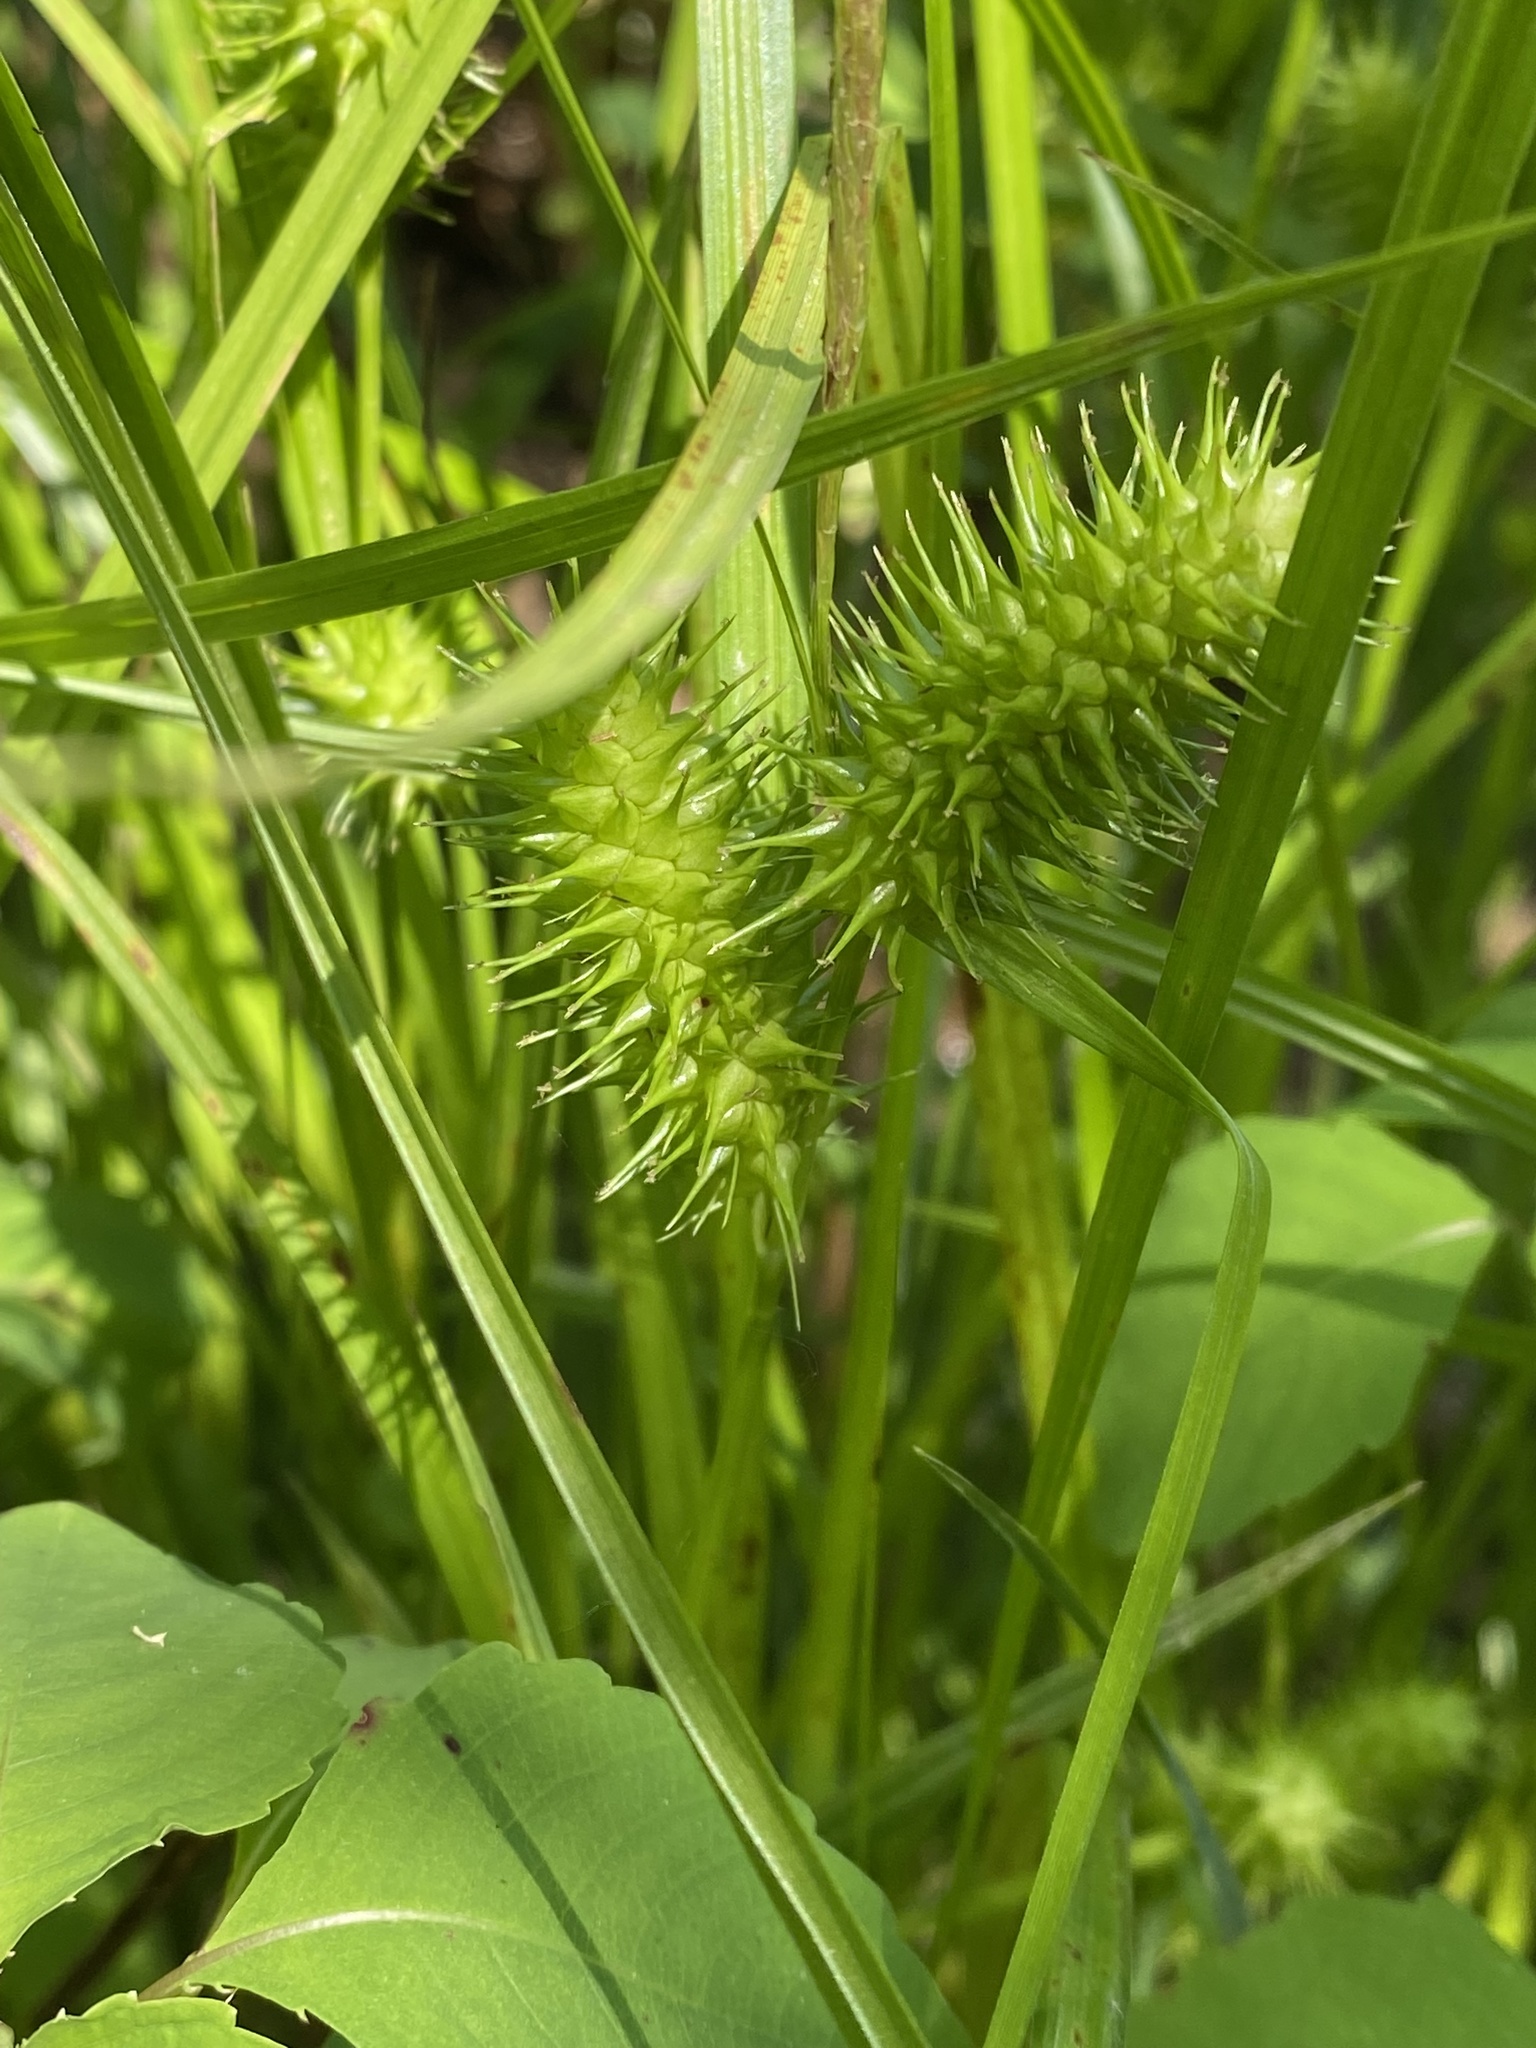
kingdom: Plantae
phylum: Tracheophyta
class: Liliopsida
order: Poales
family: Cyperaceae
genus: Carex
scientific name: Carex lurida
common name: Sallow sedge
